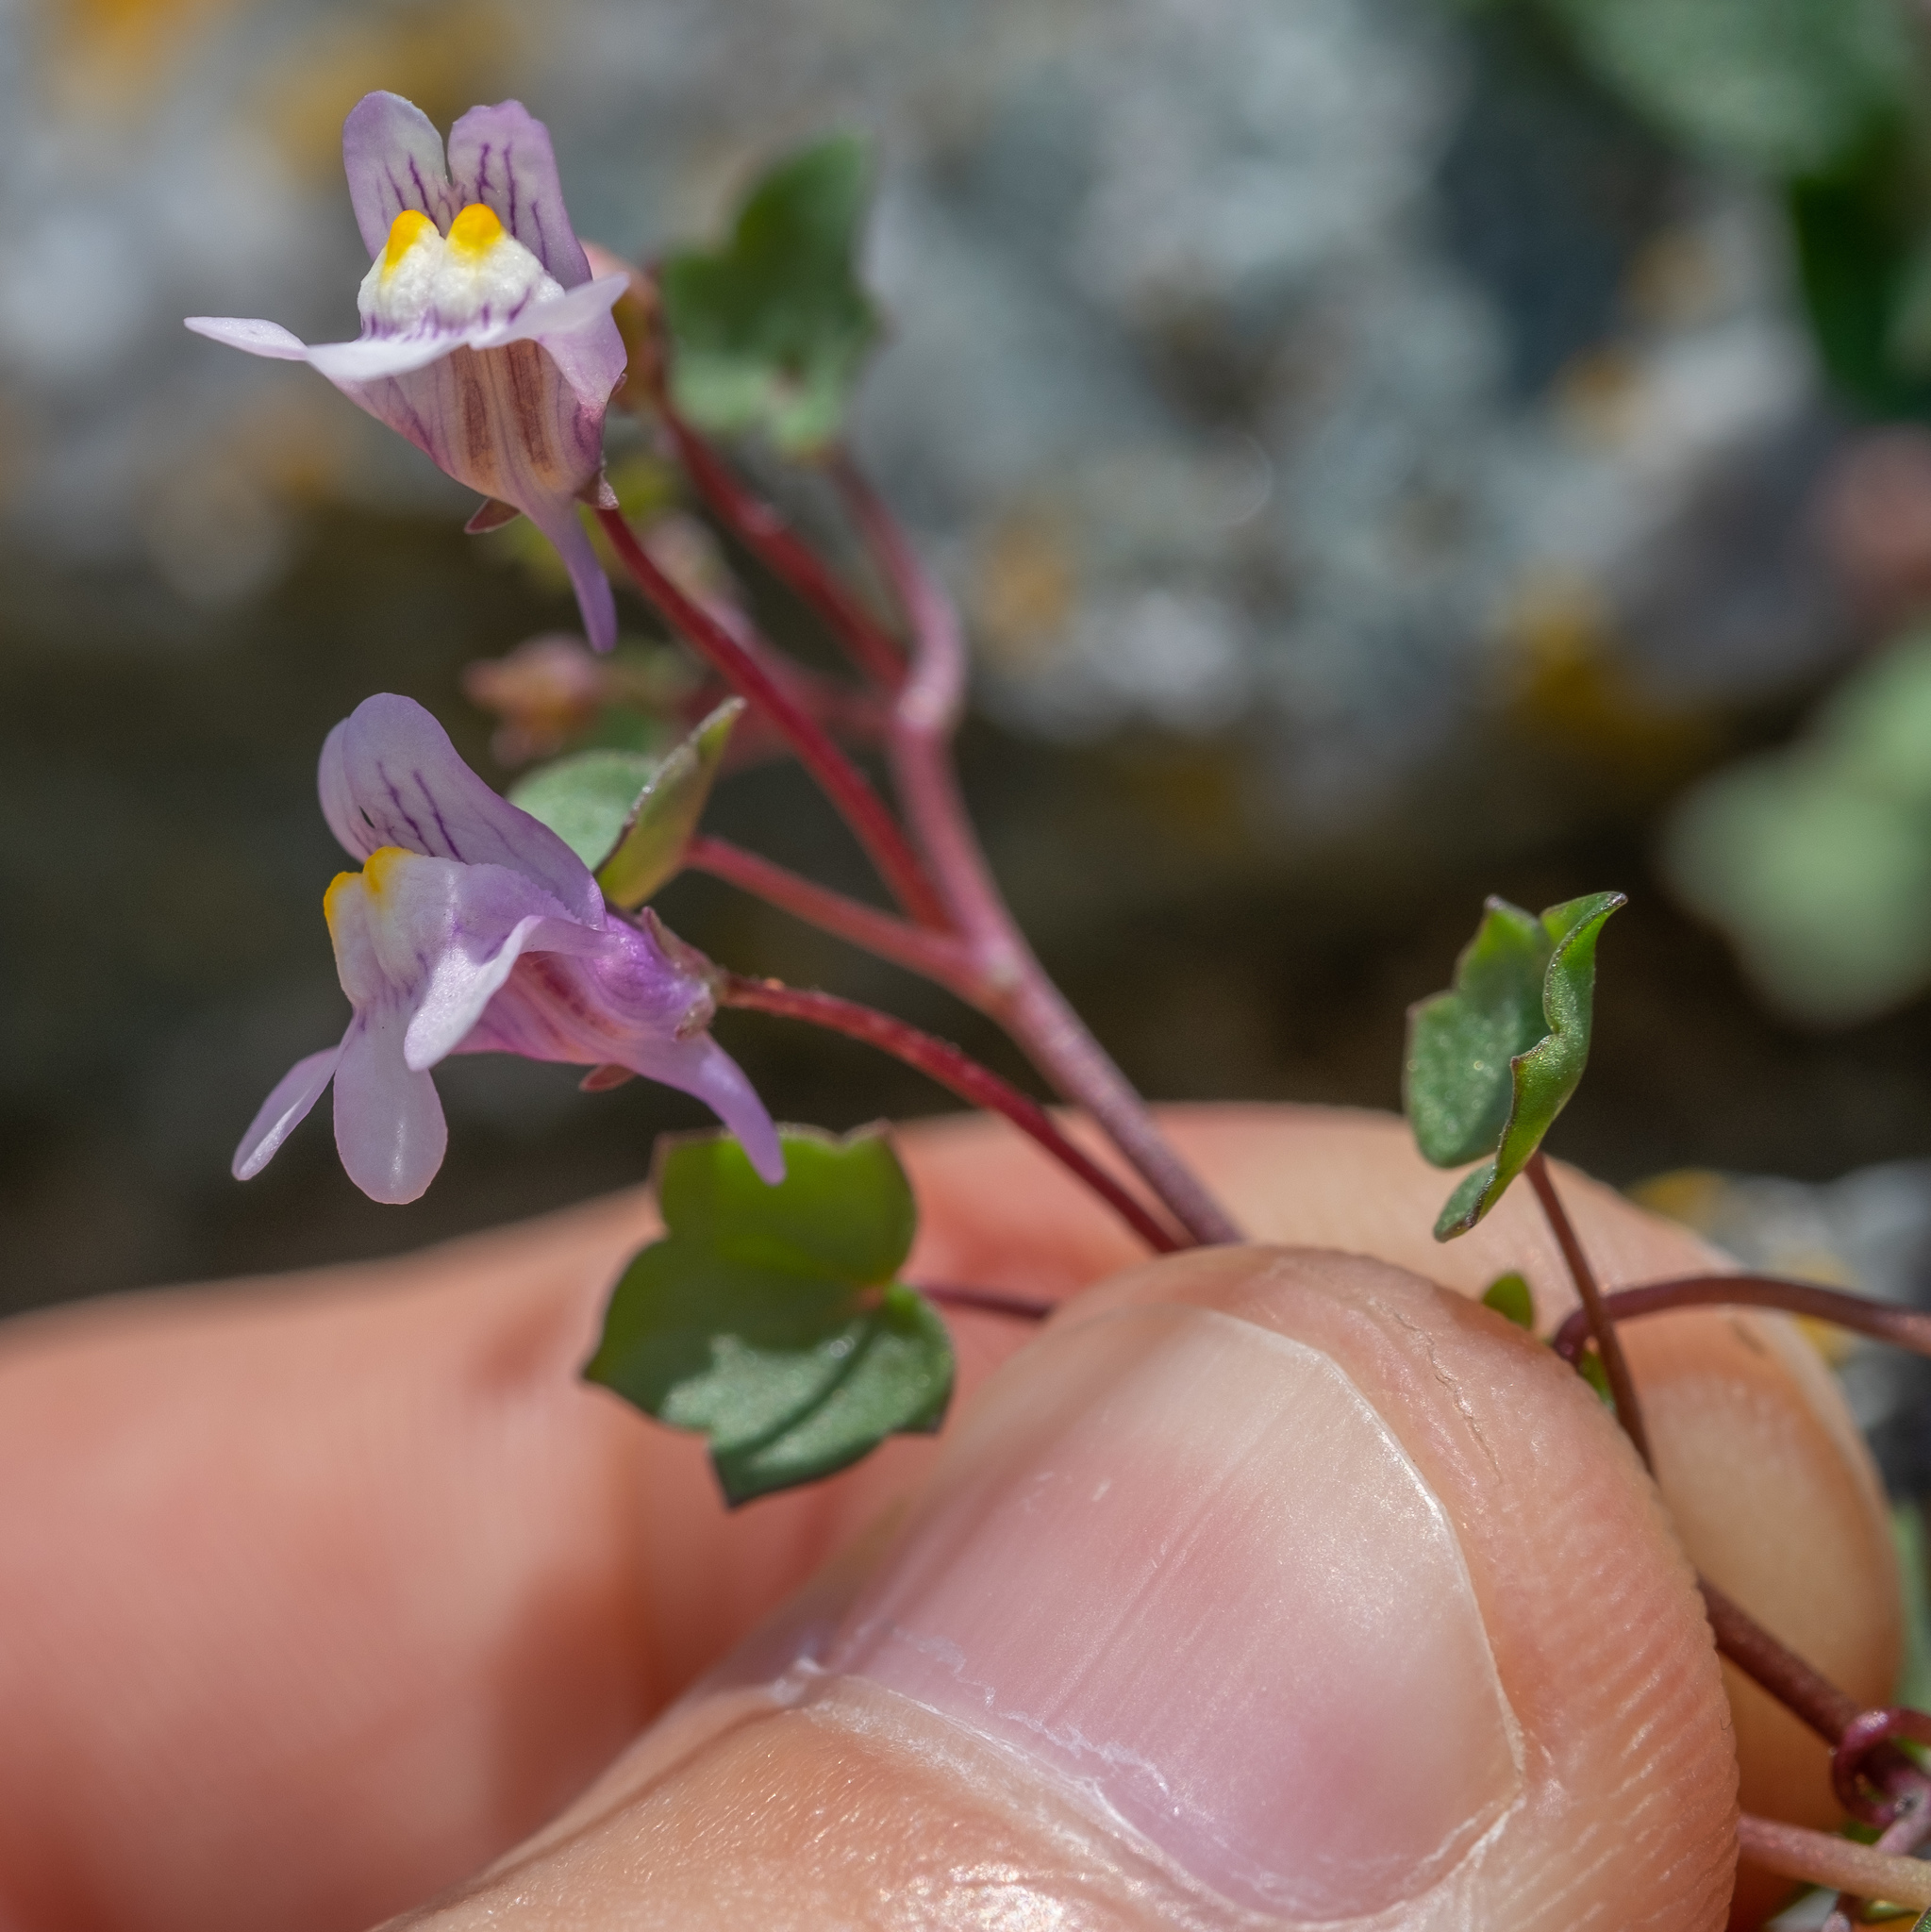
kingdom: Plantae
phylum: Tracheophyta
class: Magnoliopsida
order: Lamiales
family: Plantaginaceae
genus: Cymbalaria
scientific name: Cymbalaria muralis
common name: Ivy-leaved toadflax
